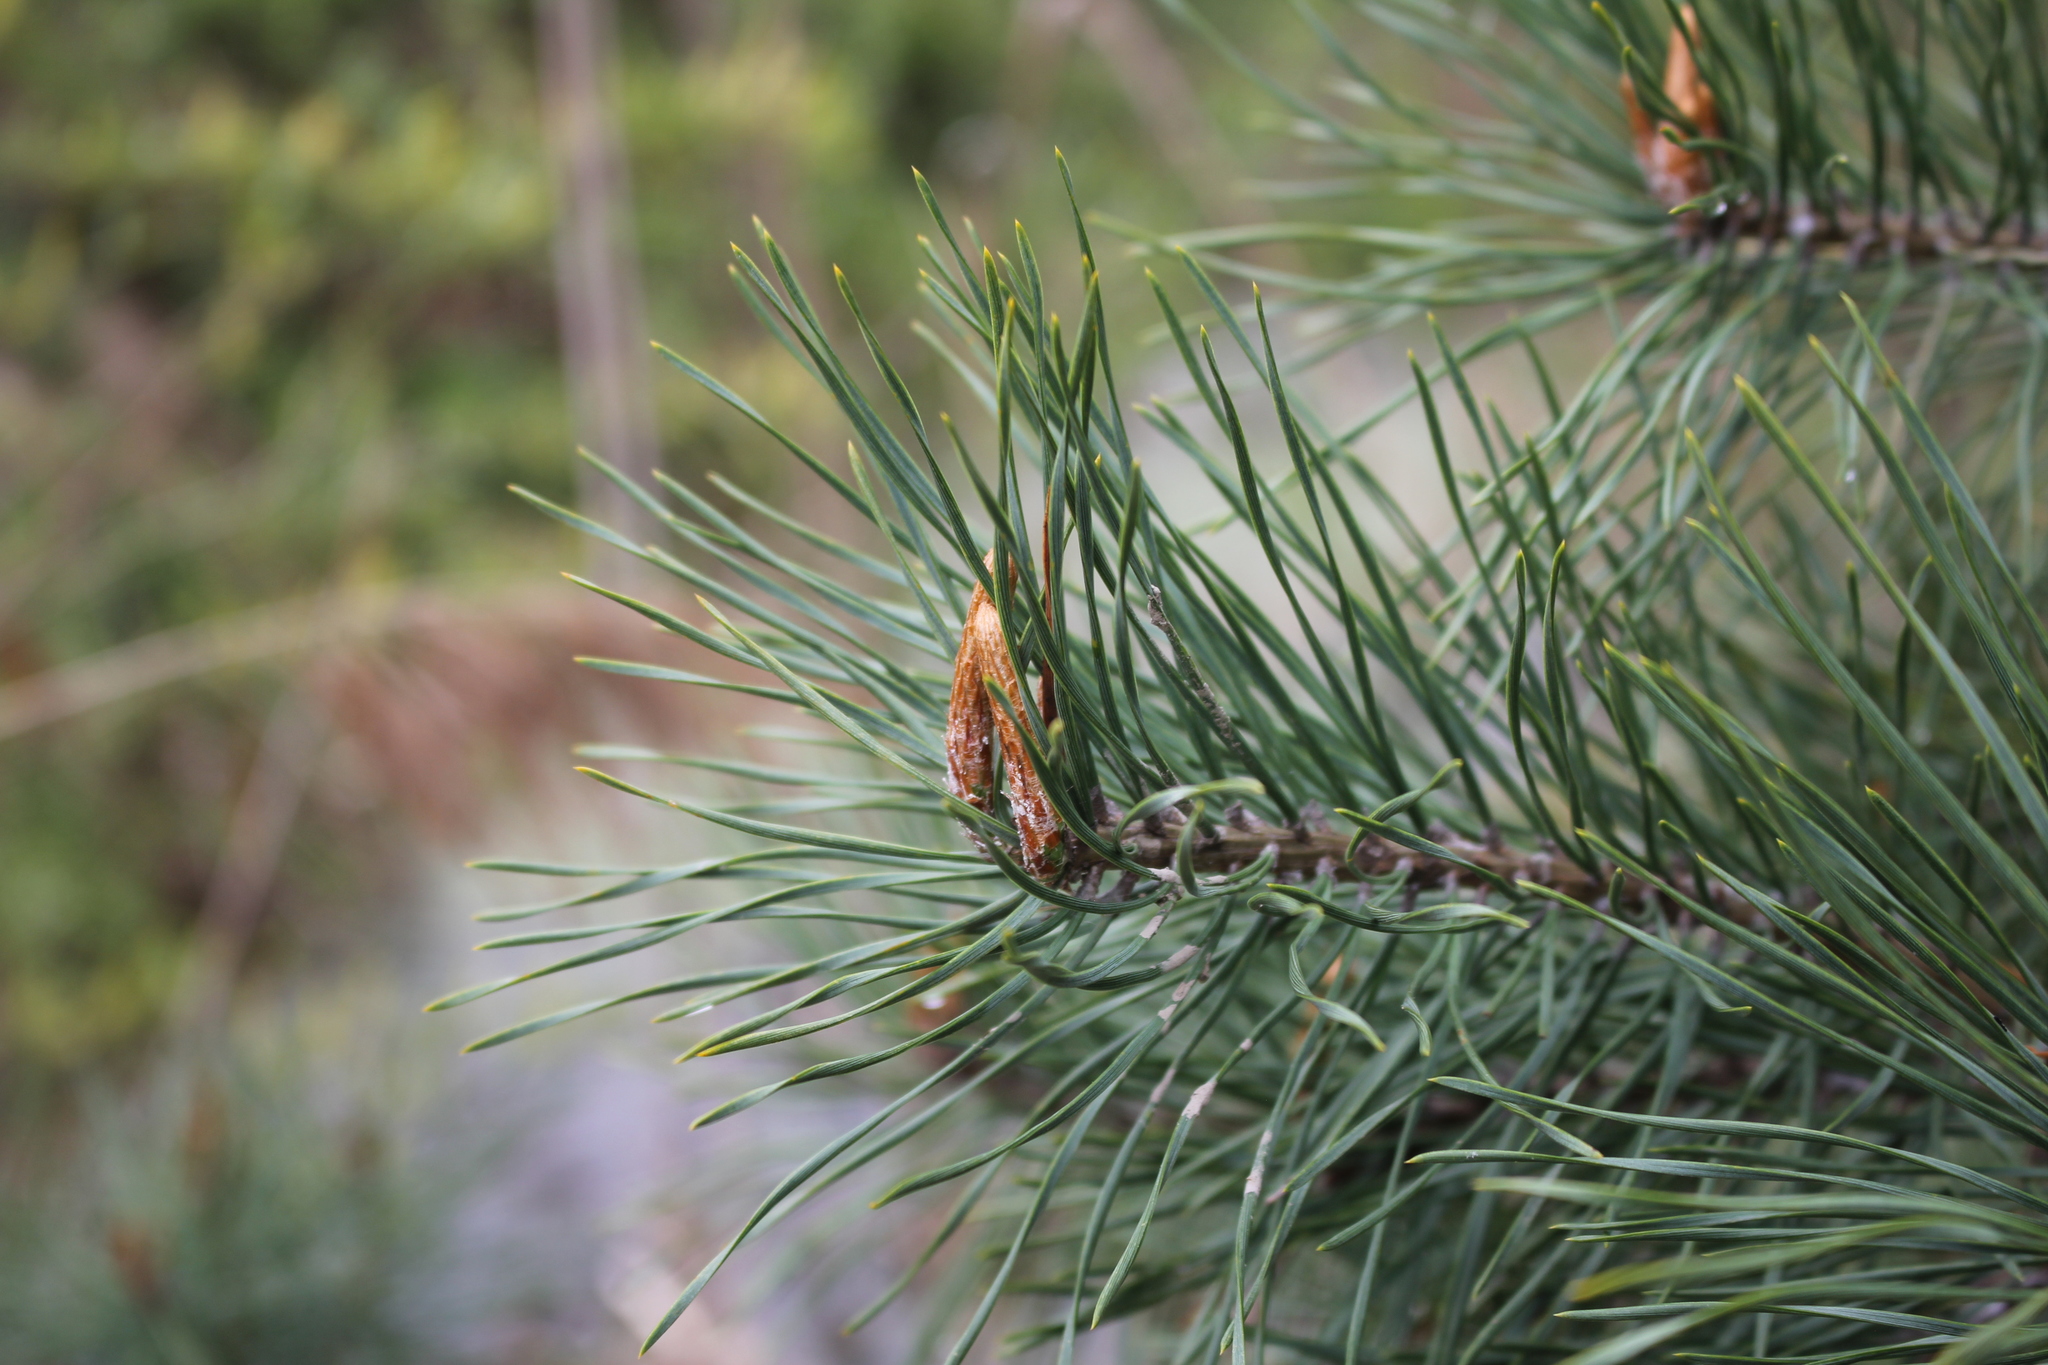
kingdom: Plantae
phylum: Tracheophyta
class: Pinopsida
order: Pinales
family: Pinaceae
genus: Pinus
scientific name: Pinus sylvestris
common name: Scots pine
